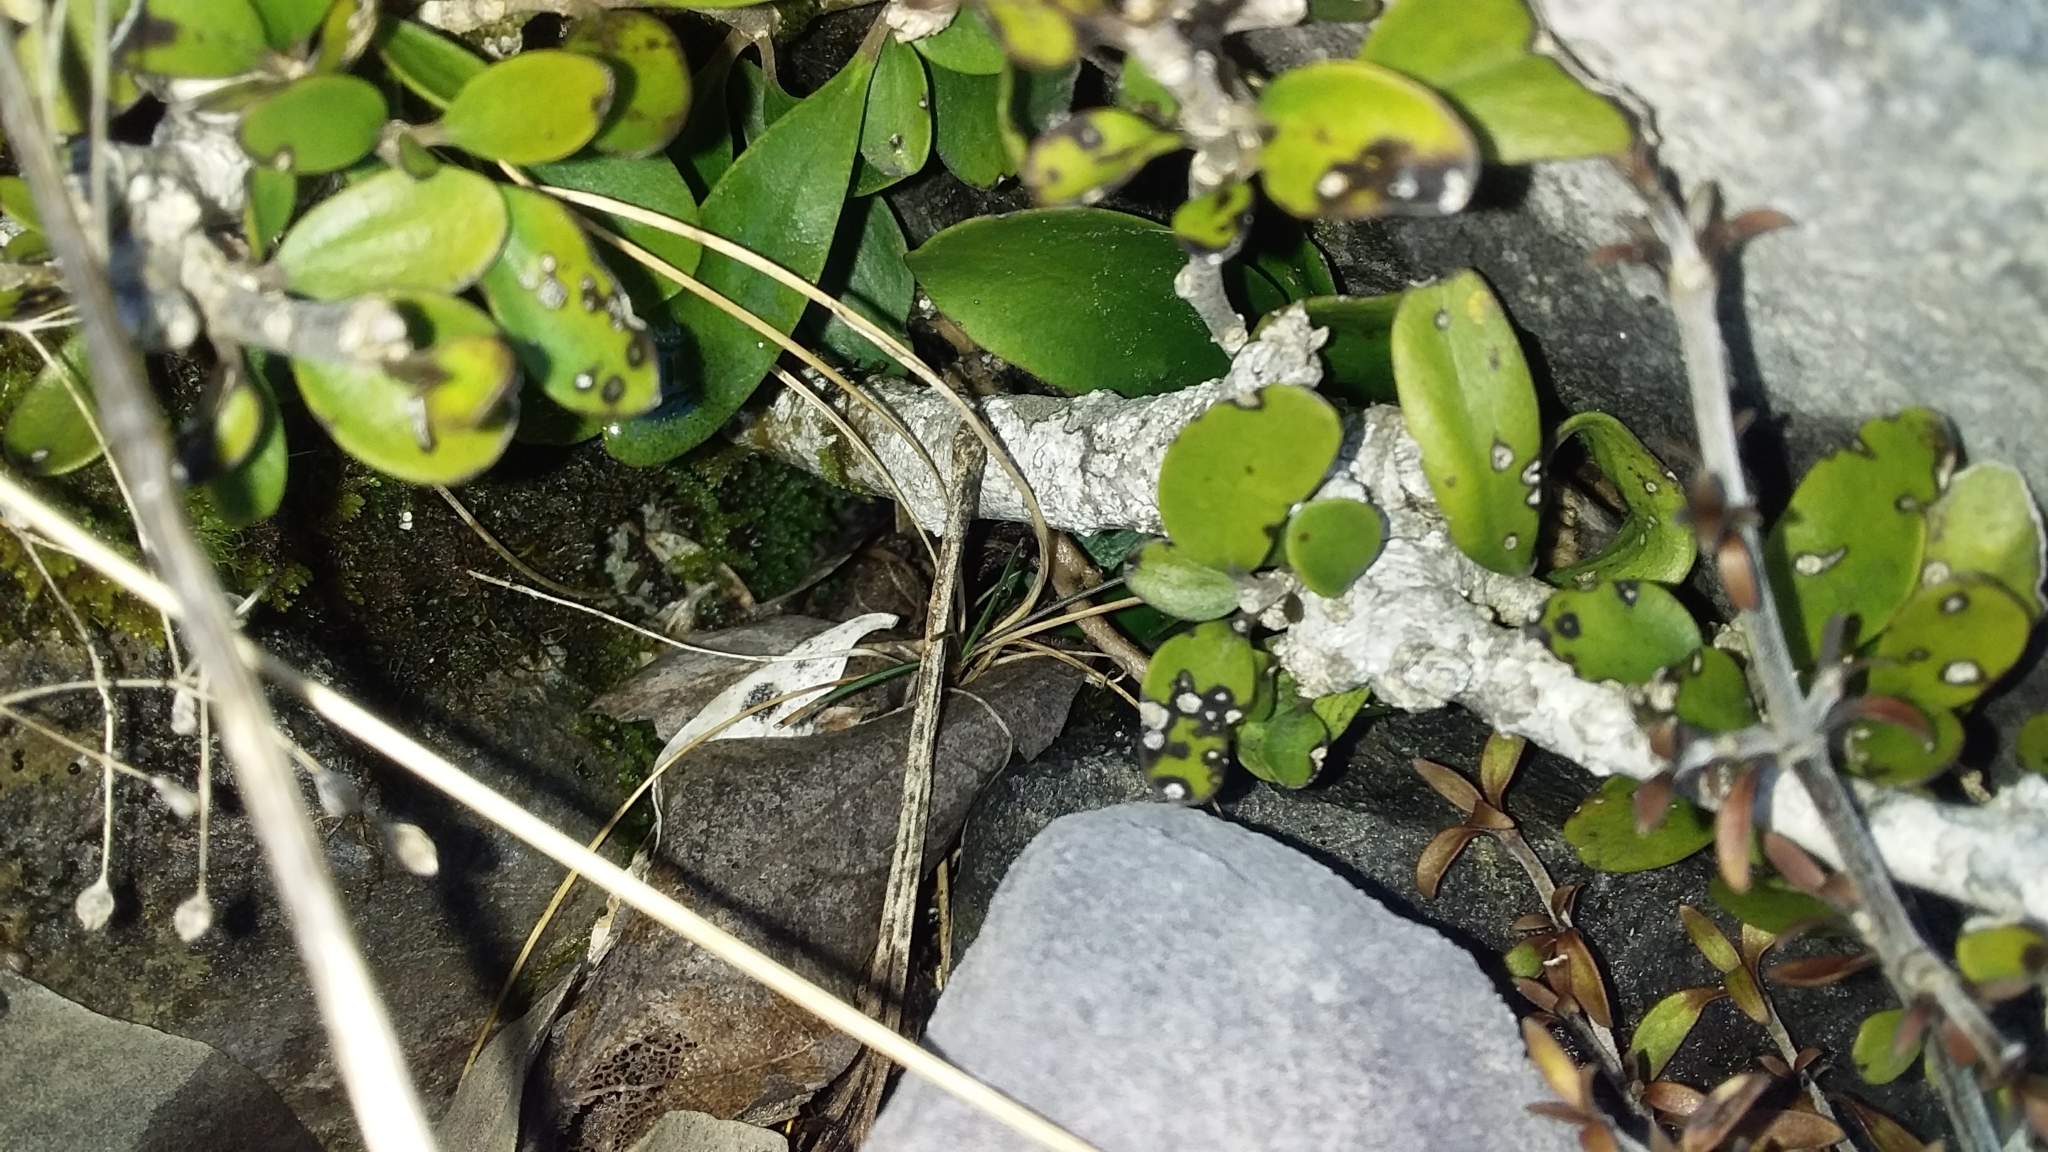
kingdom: Plantae
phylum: Tracheophyta
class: Magnoliopsida
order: Malpighiales
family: Violaceae
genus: Melicytus
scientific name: Melicytus obovatus
